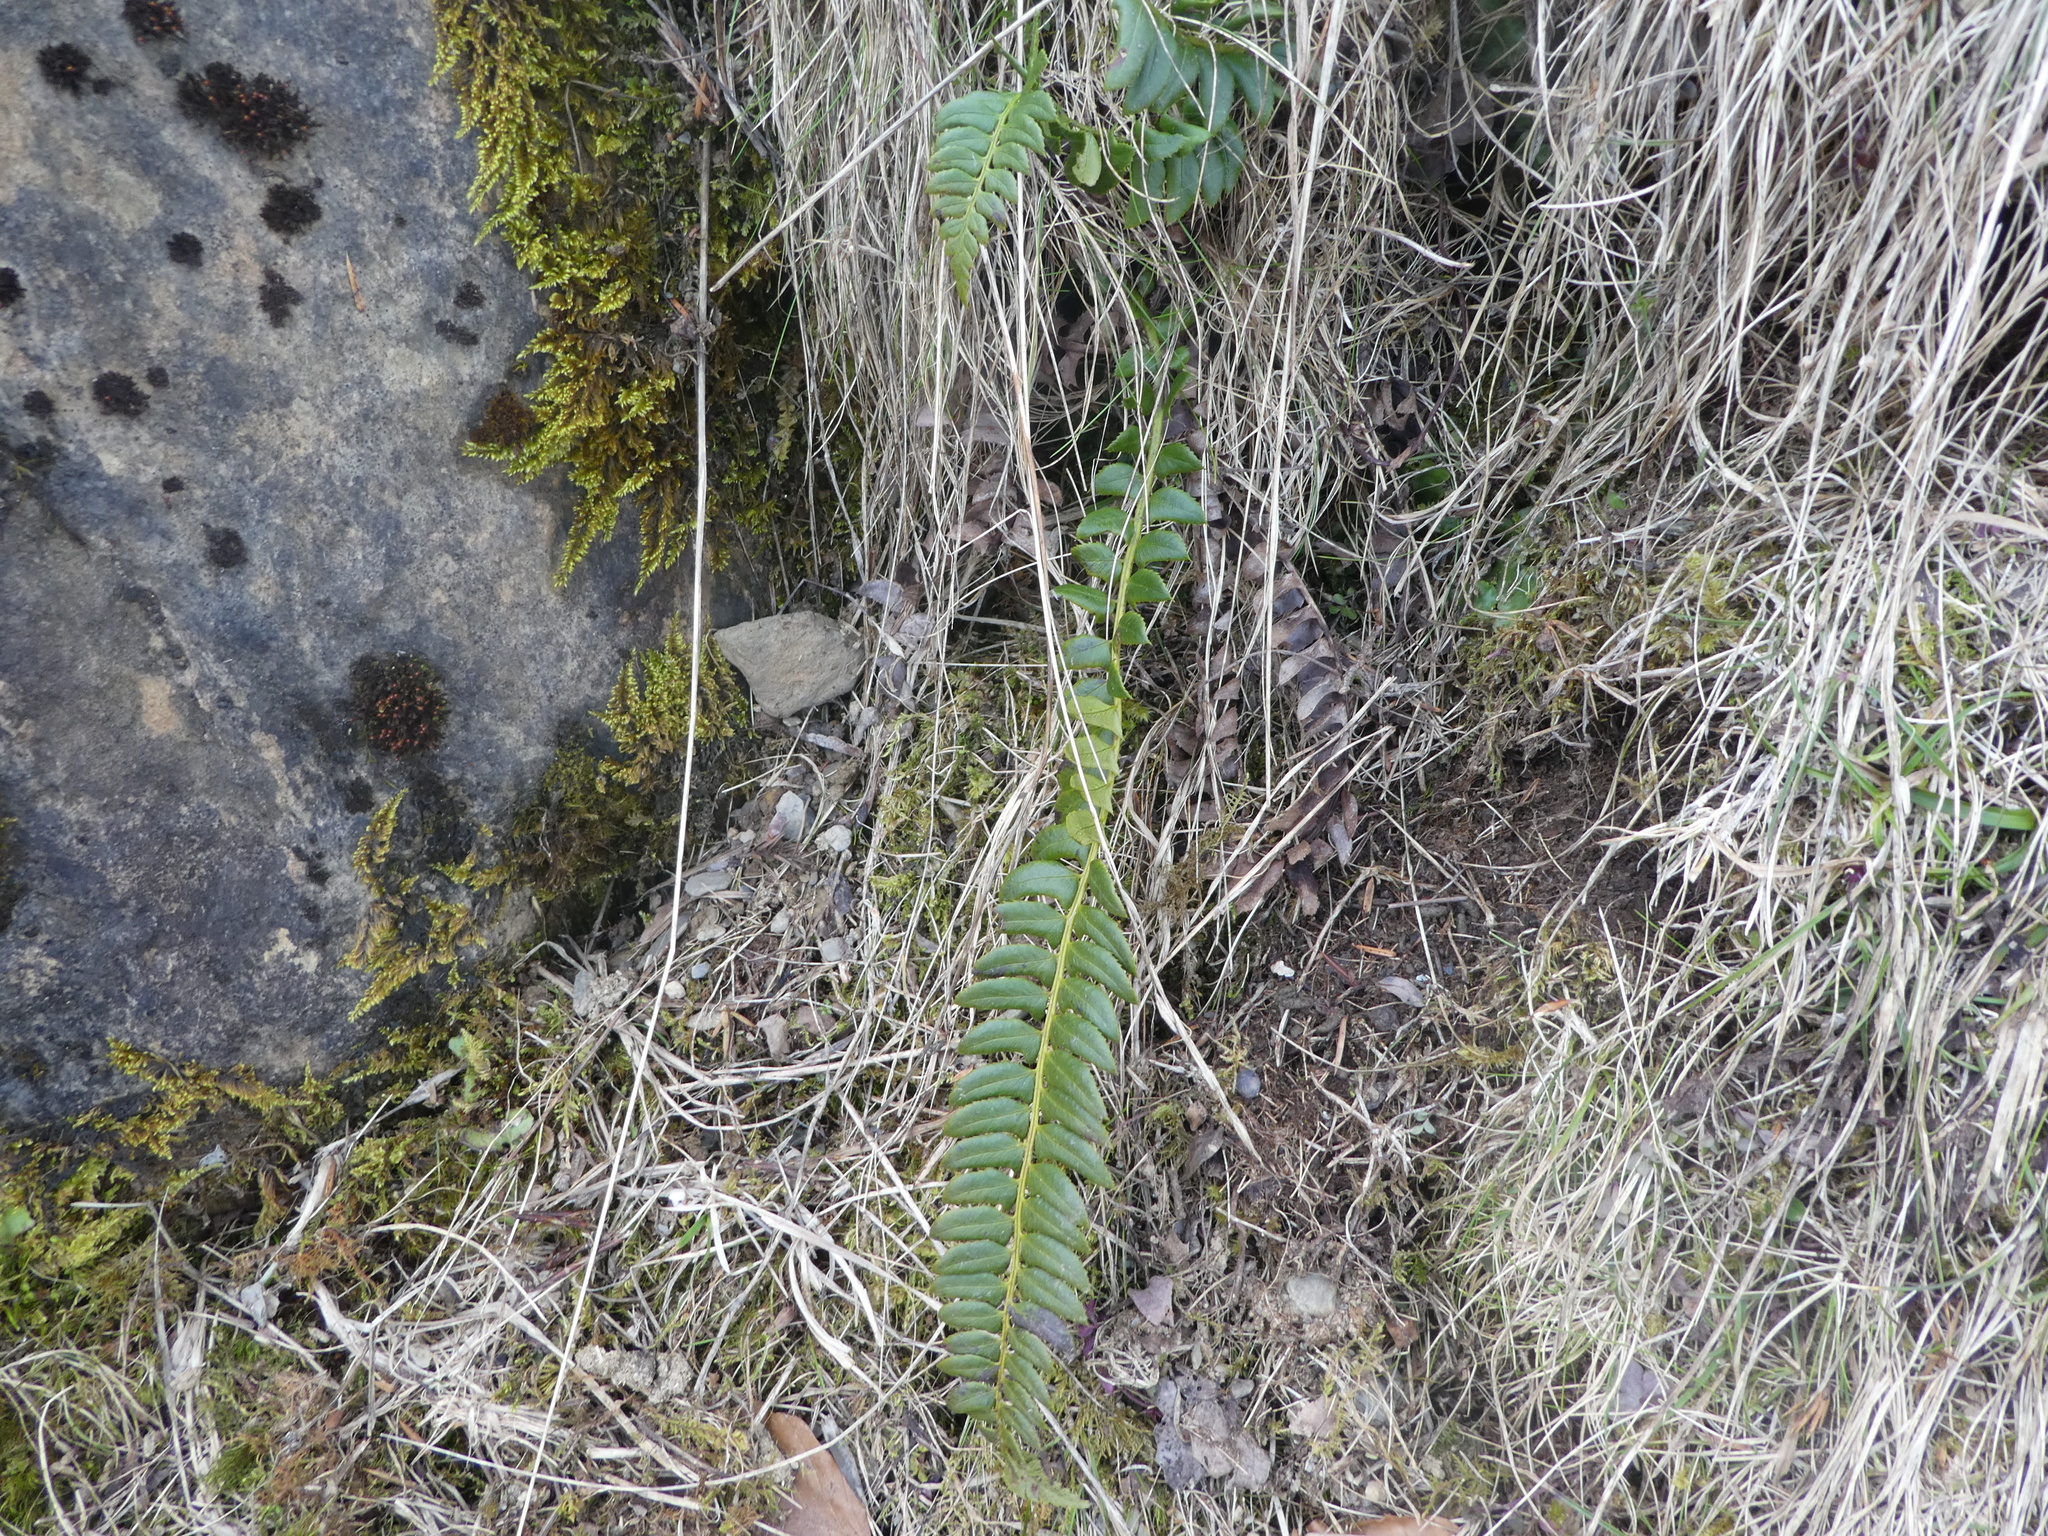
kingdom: Plantae
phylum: Tracheophyta
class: Polypodiopsida
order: Polypodiales
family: Dryopteridaceae
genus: Polystichum
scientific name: Polystichum lonchitis
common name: Holly fern
